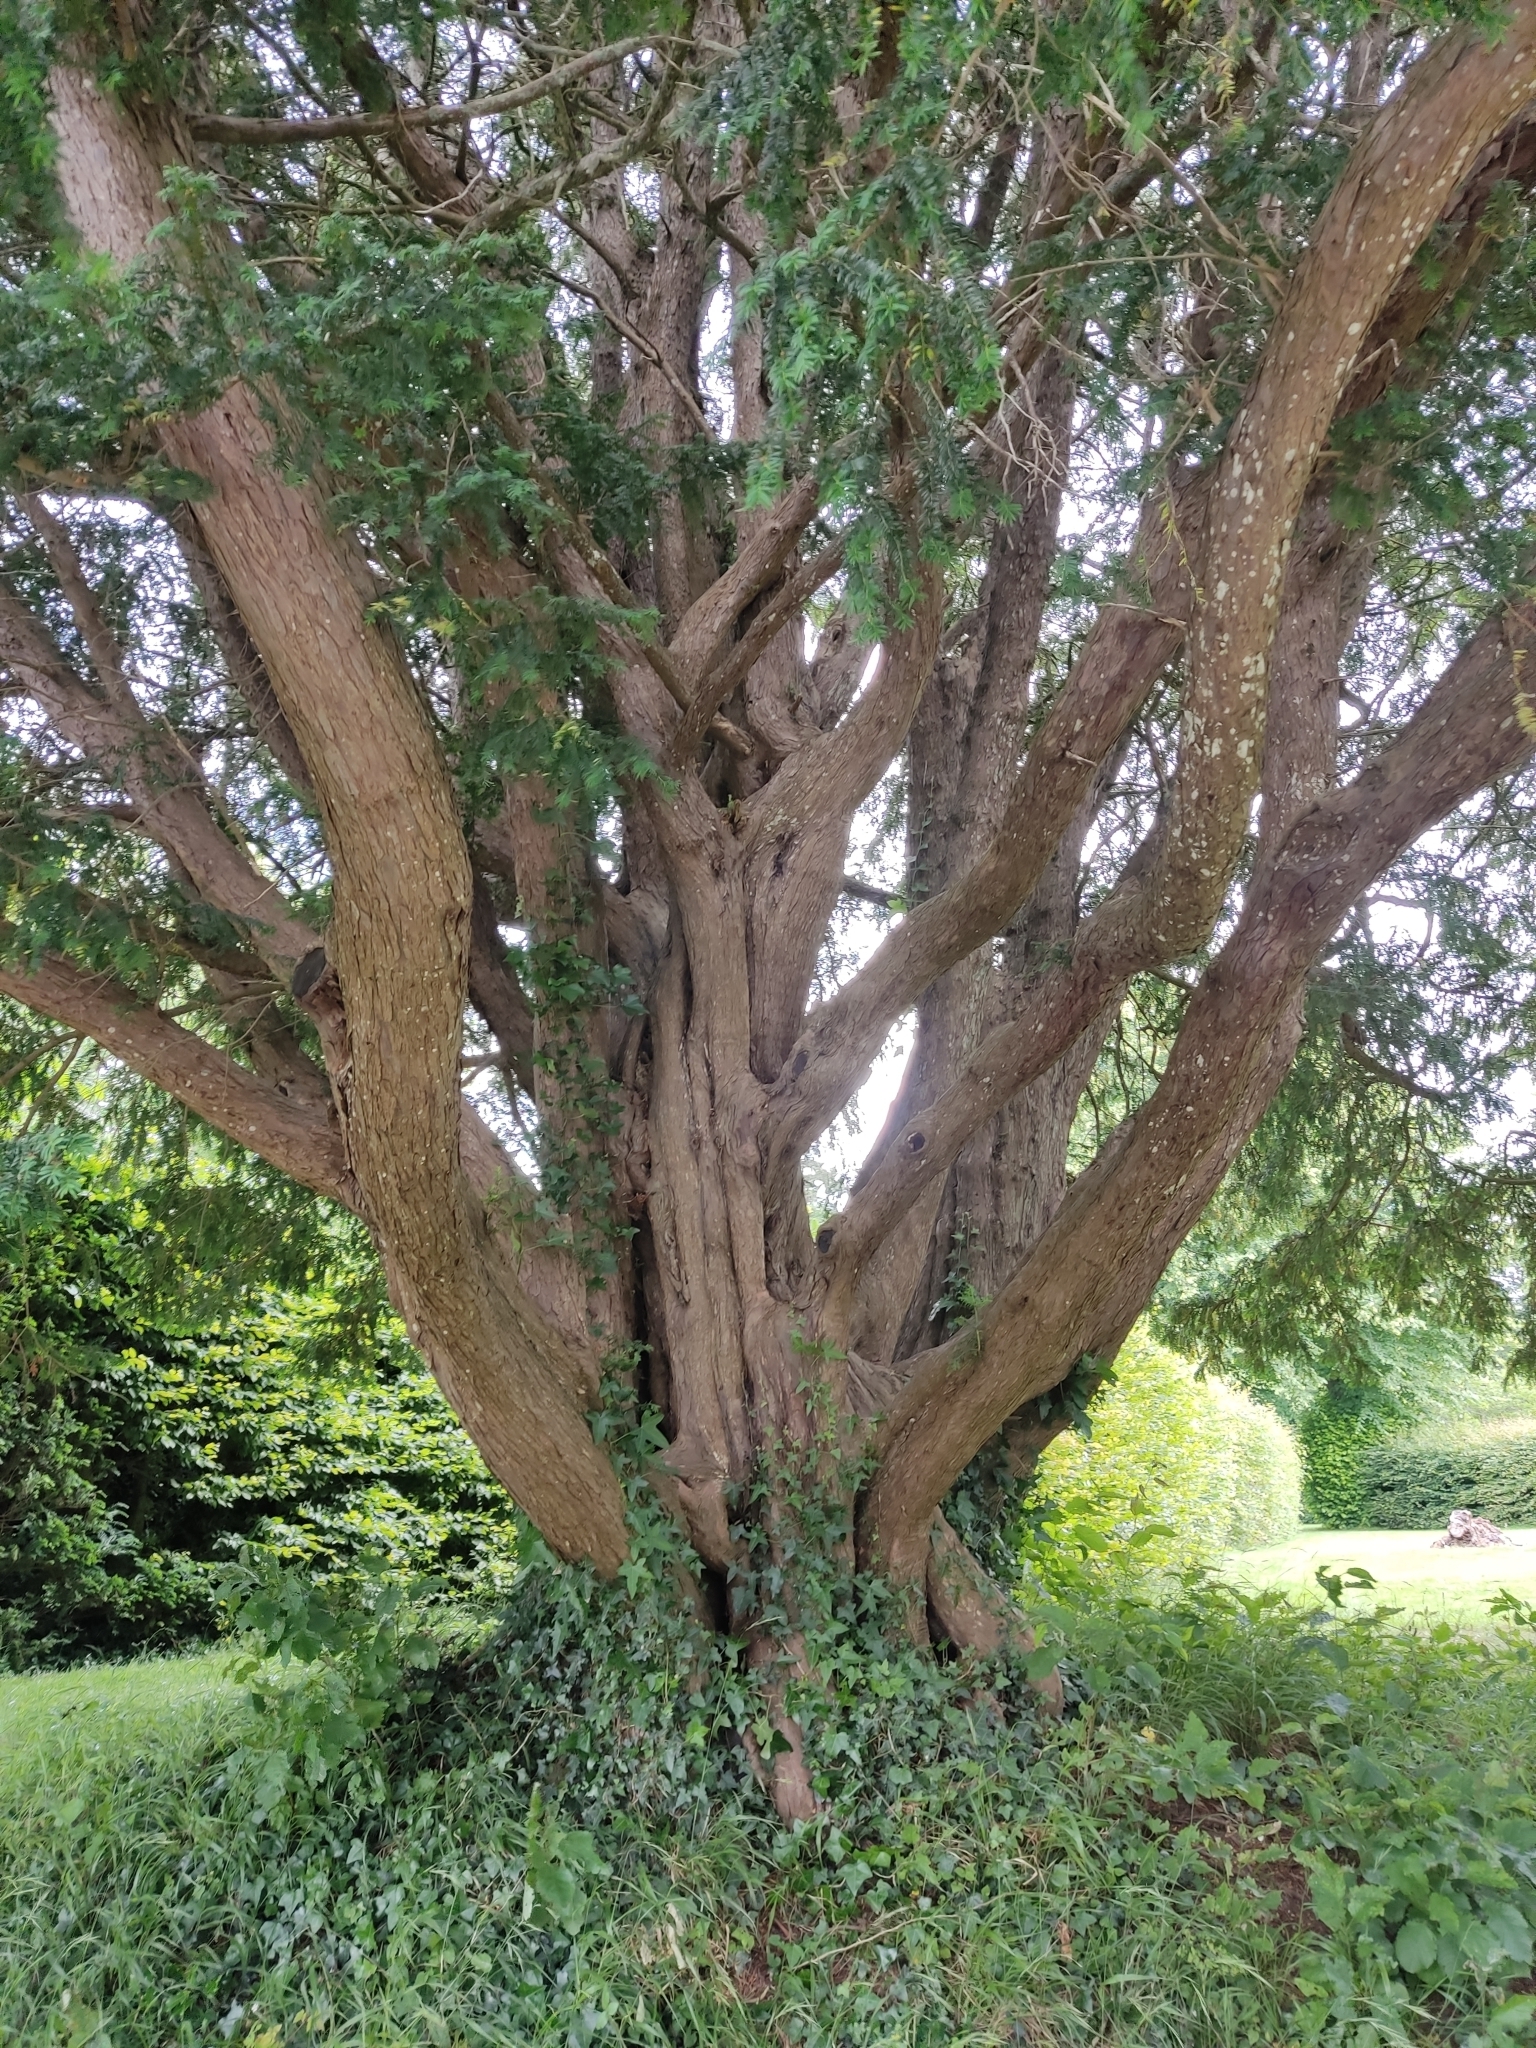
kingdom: Plantae
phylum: Tracheophyta
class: Pinopsida
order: Pinales
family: Taxaceae
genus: Taxus
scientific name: Taxus baccata
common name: Yew
